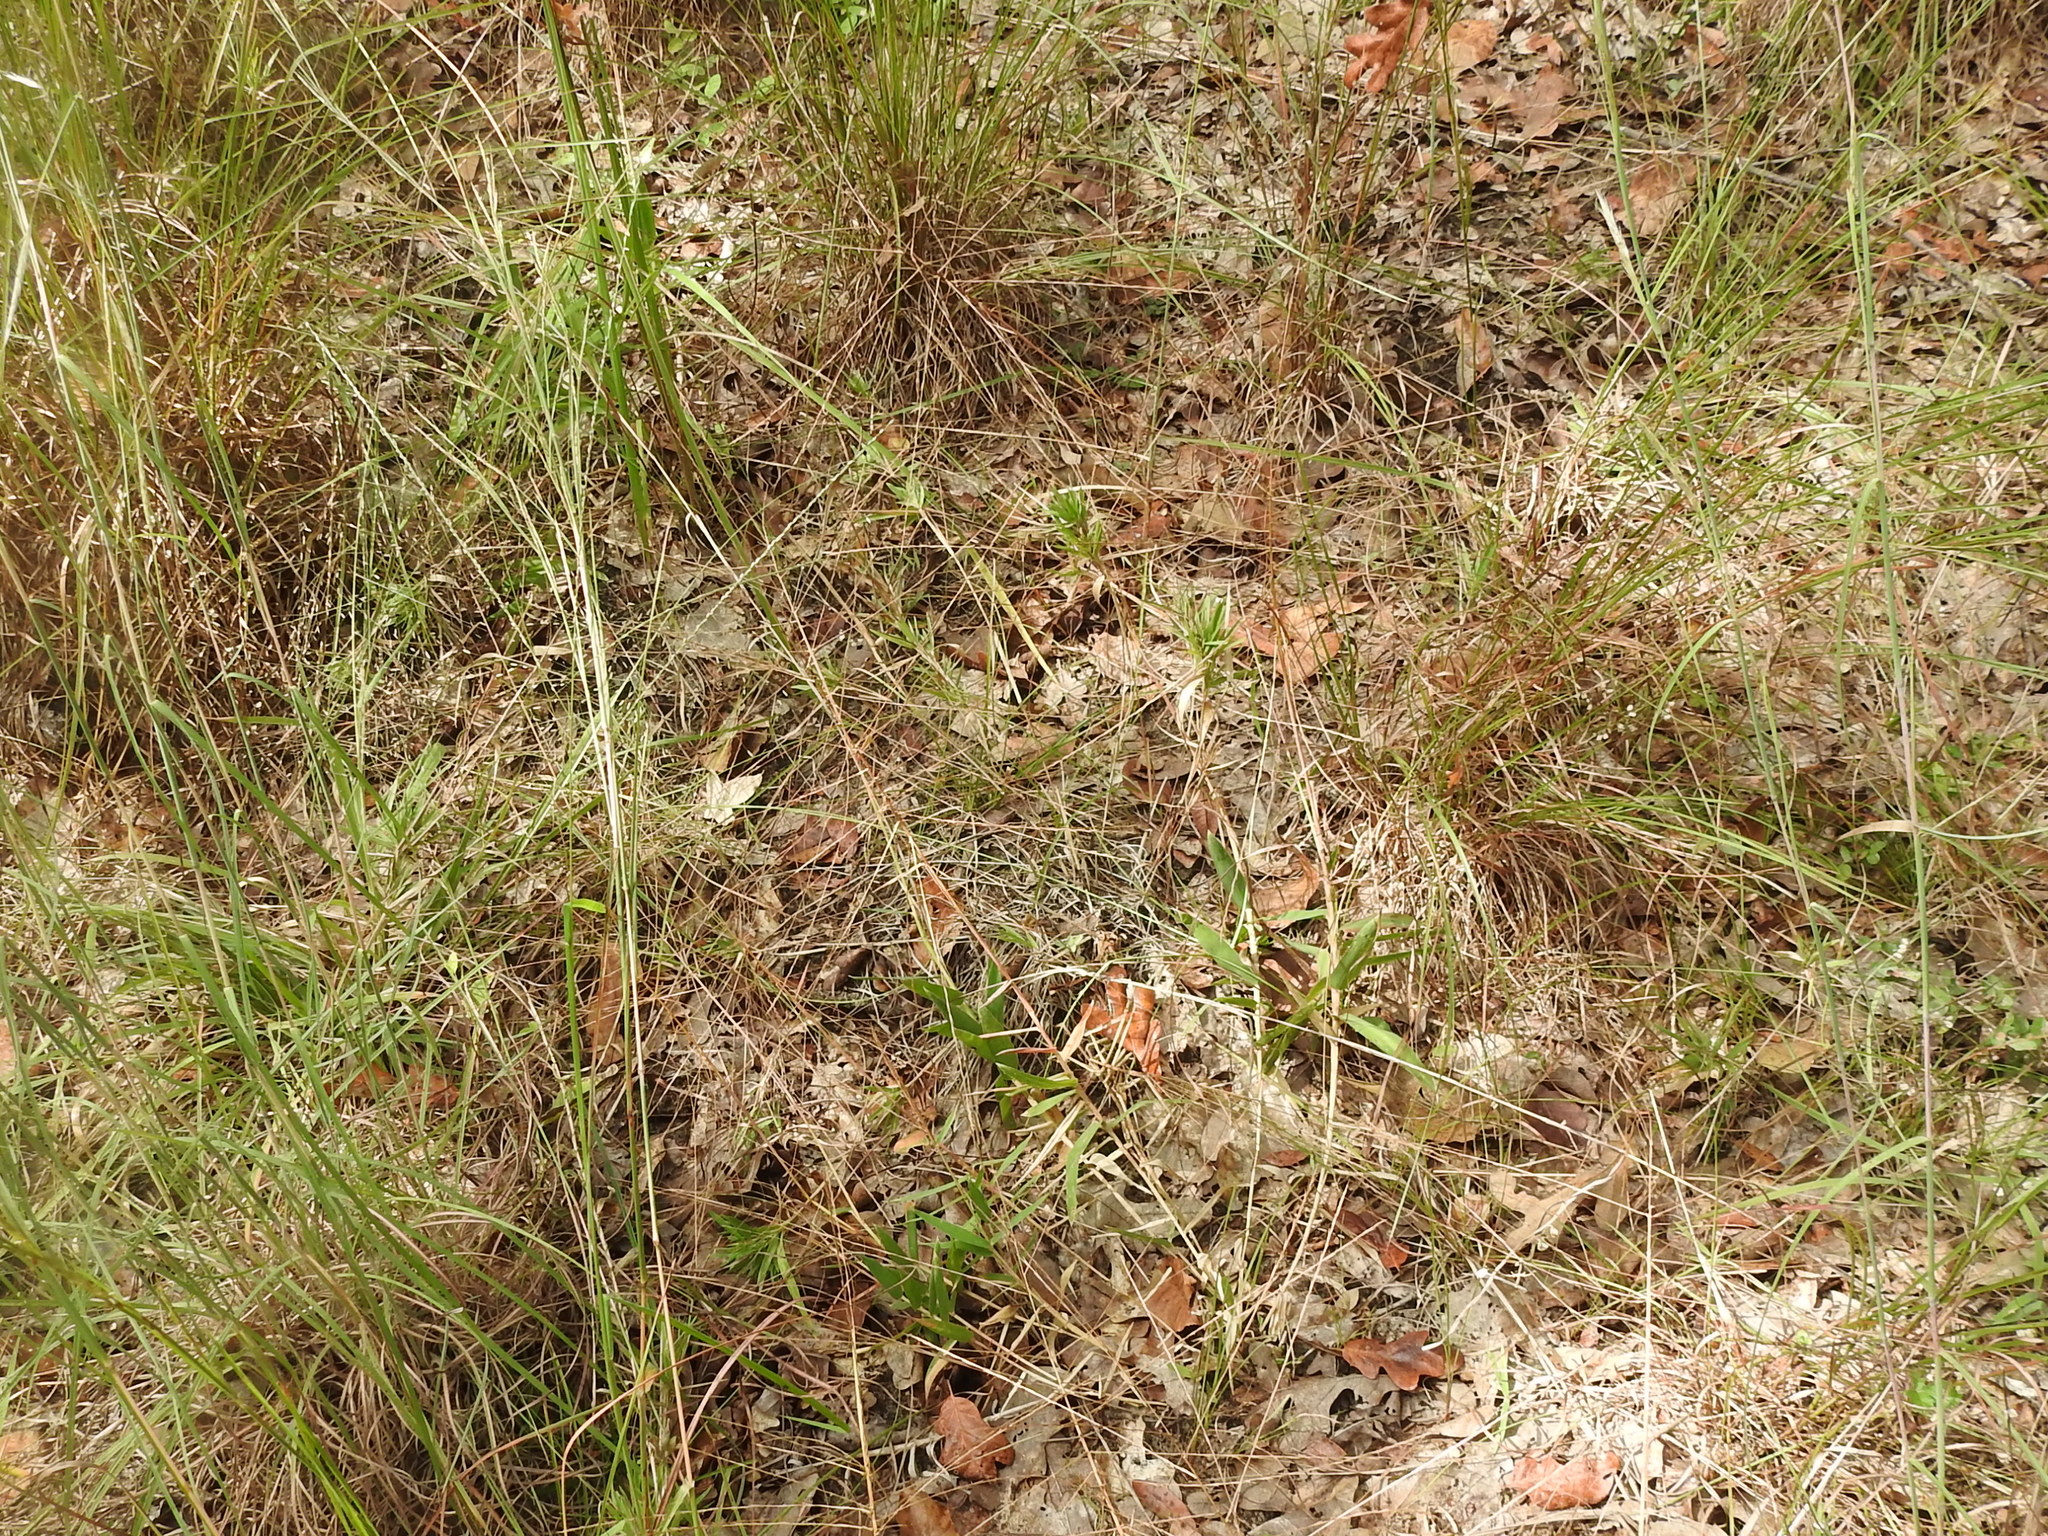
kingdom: Plantae
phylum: Tracheophyta
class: Liliopsida
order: Poales
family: Poaceae
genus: Gymnopogon
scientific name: Gymnopogon ambiguus
